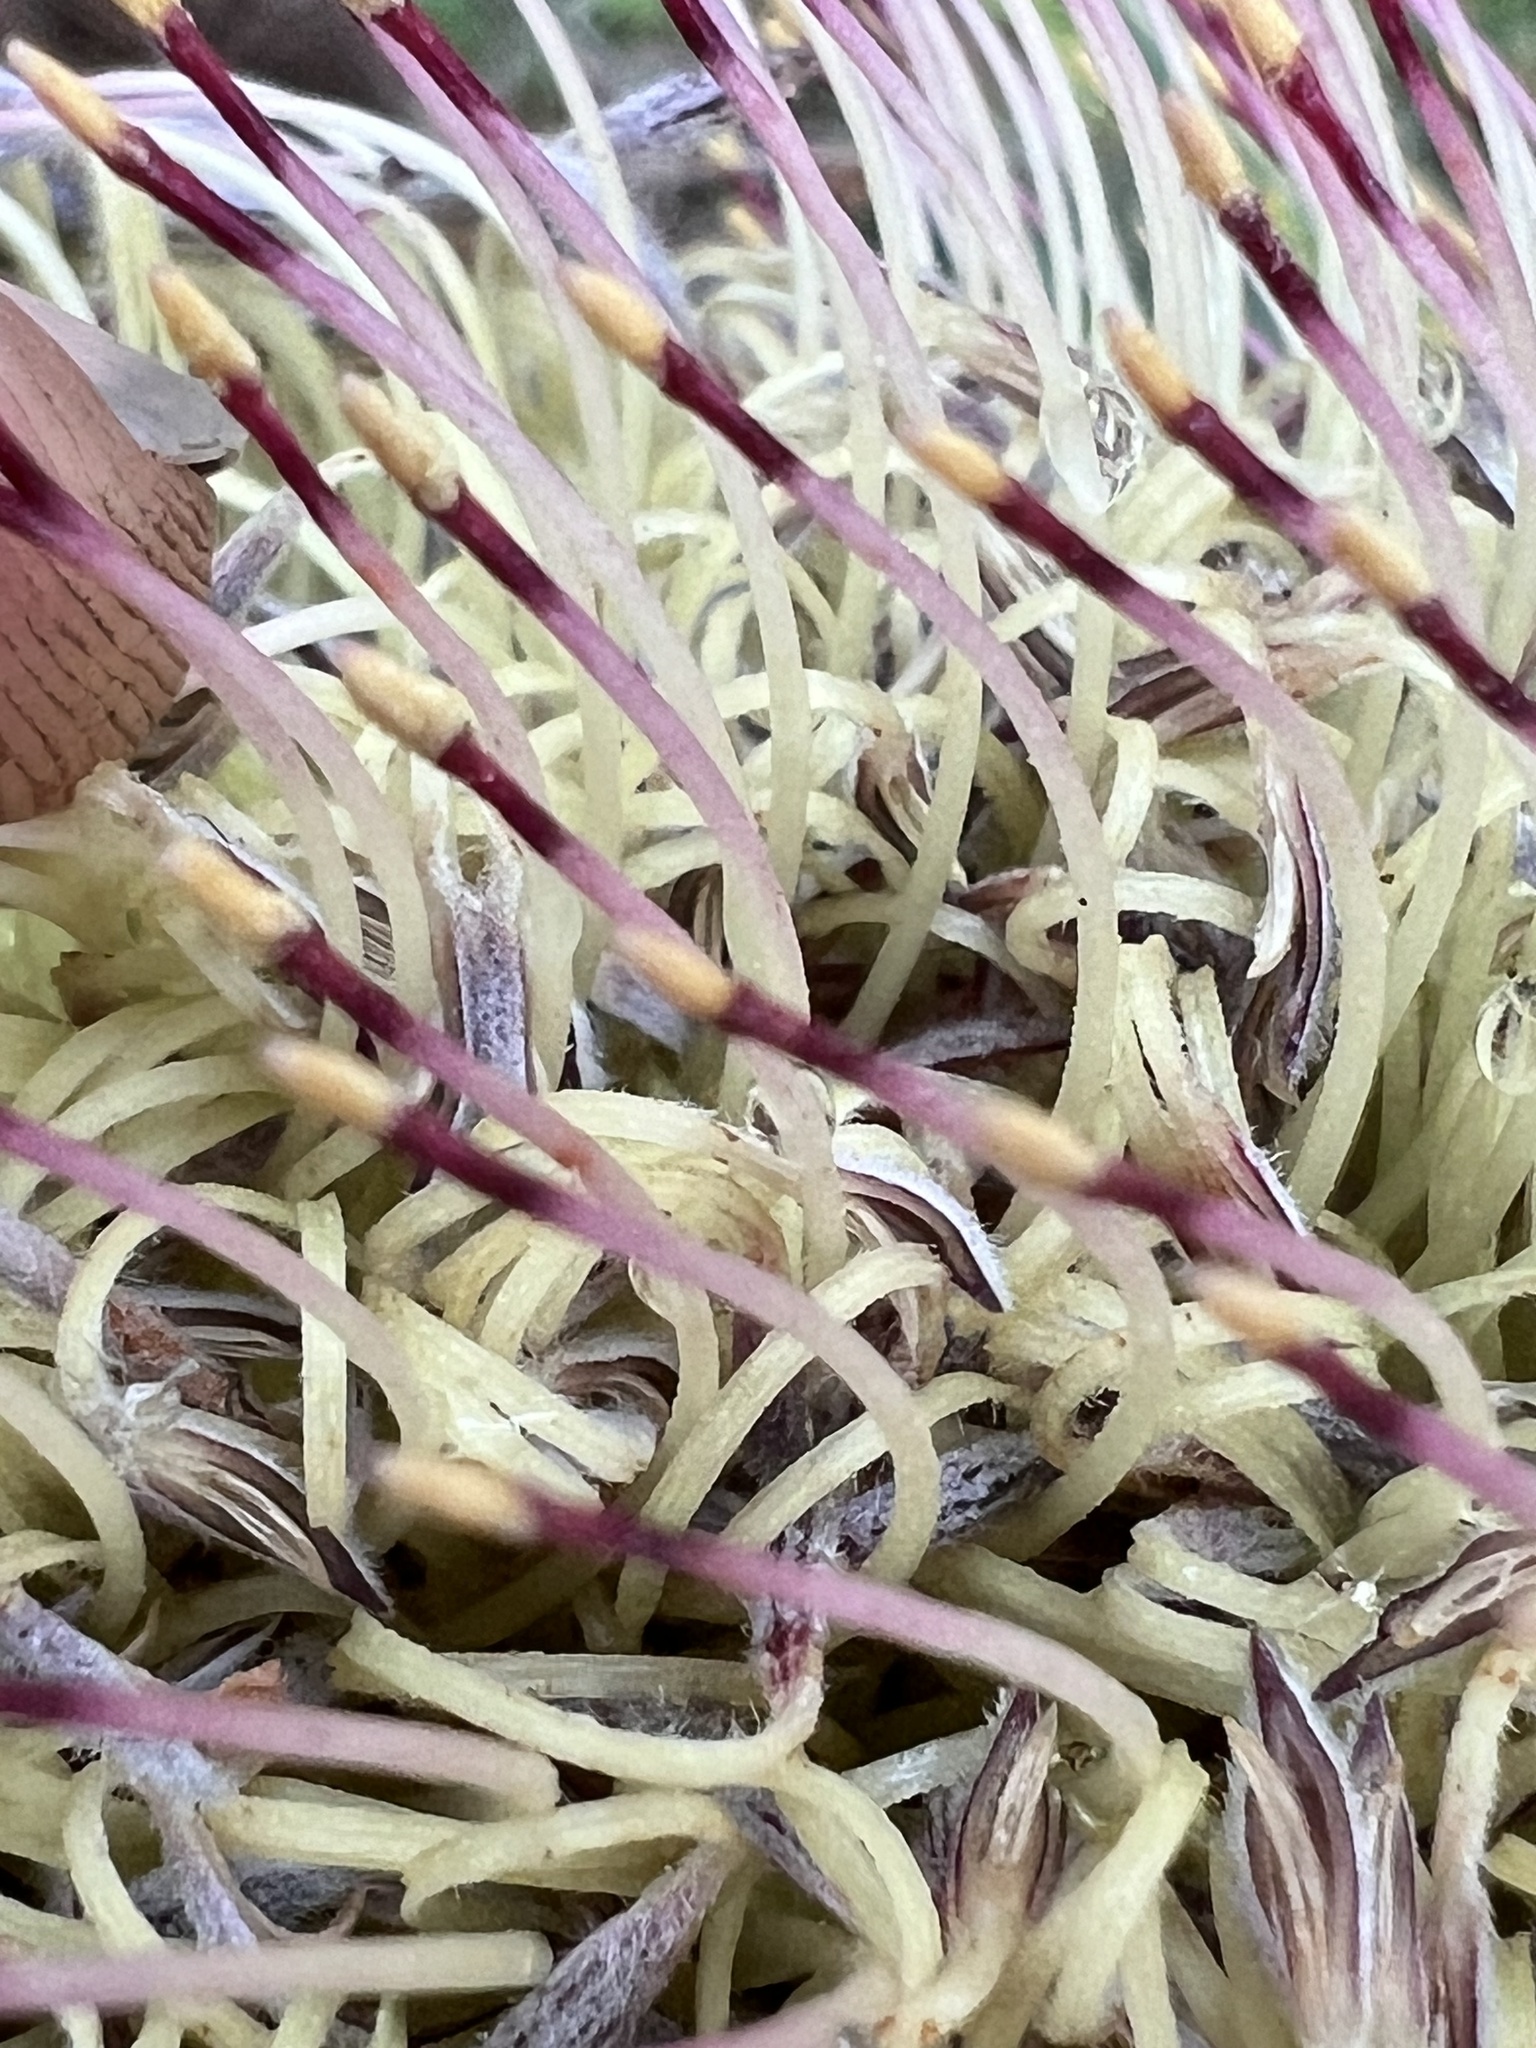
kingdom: Plantae
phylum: Tracheophyta
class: Magnoliopsida
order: Proteales
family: Proteaceae
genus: Banksia
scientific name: Banksia serrata
